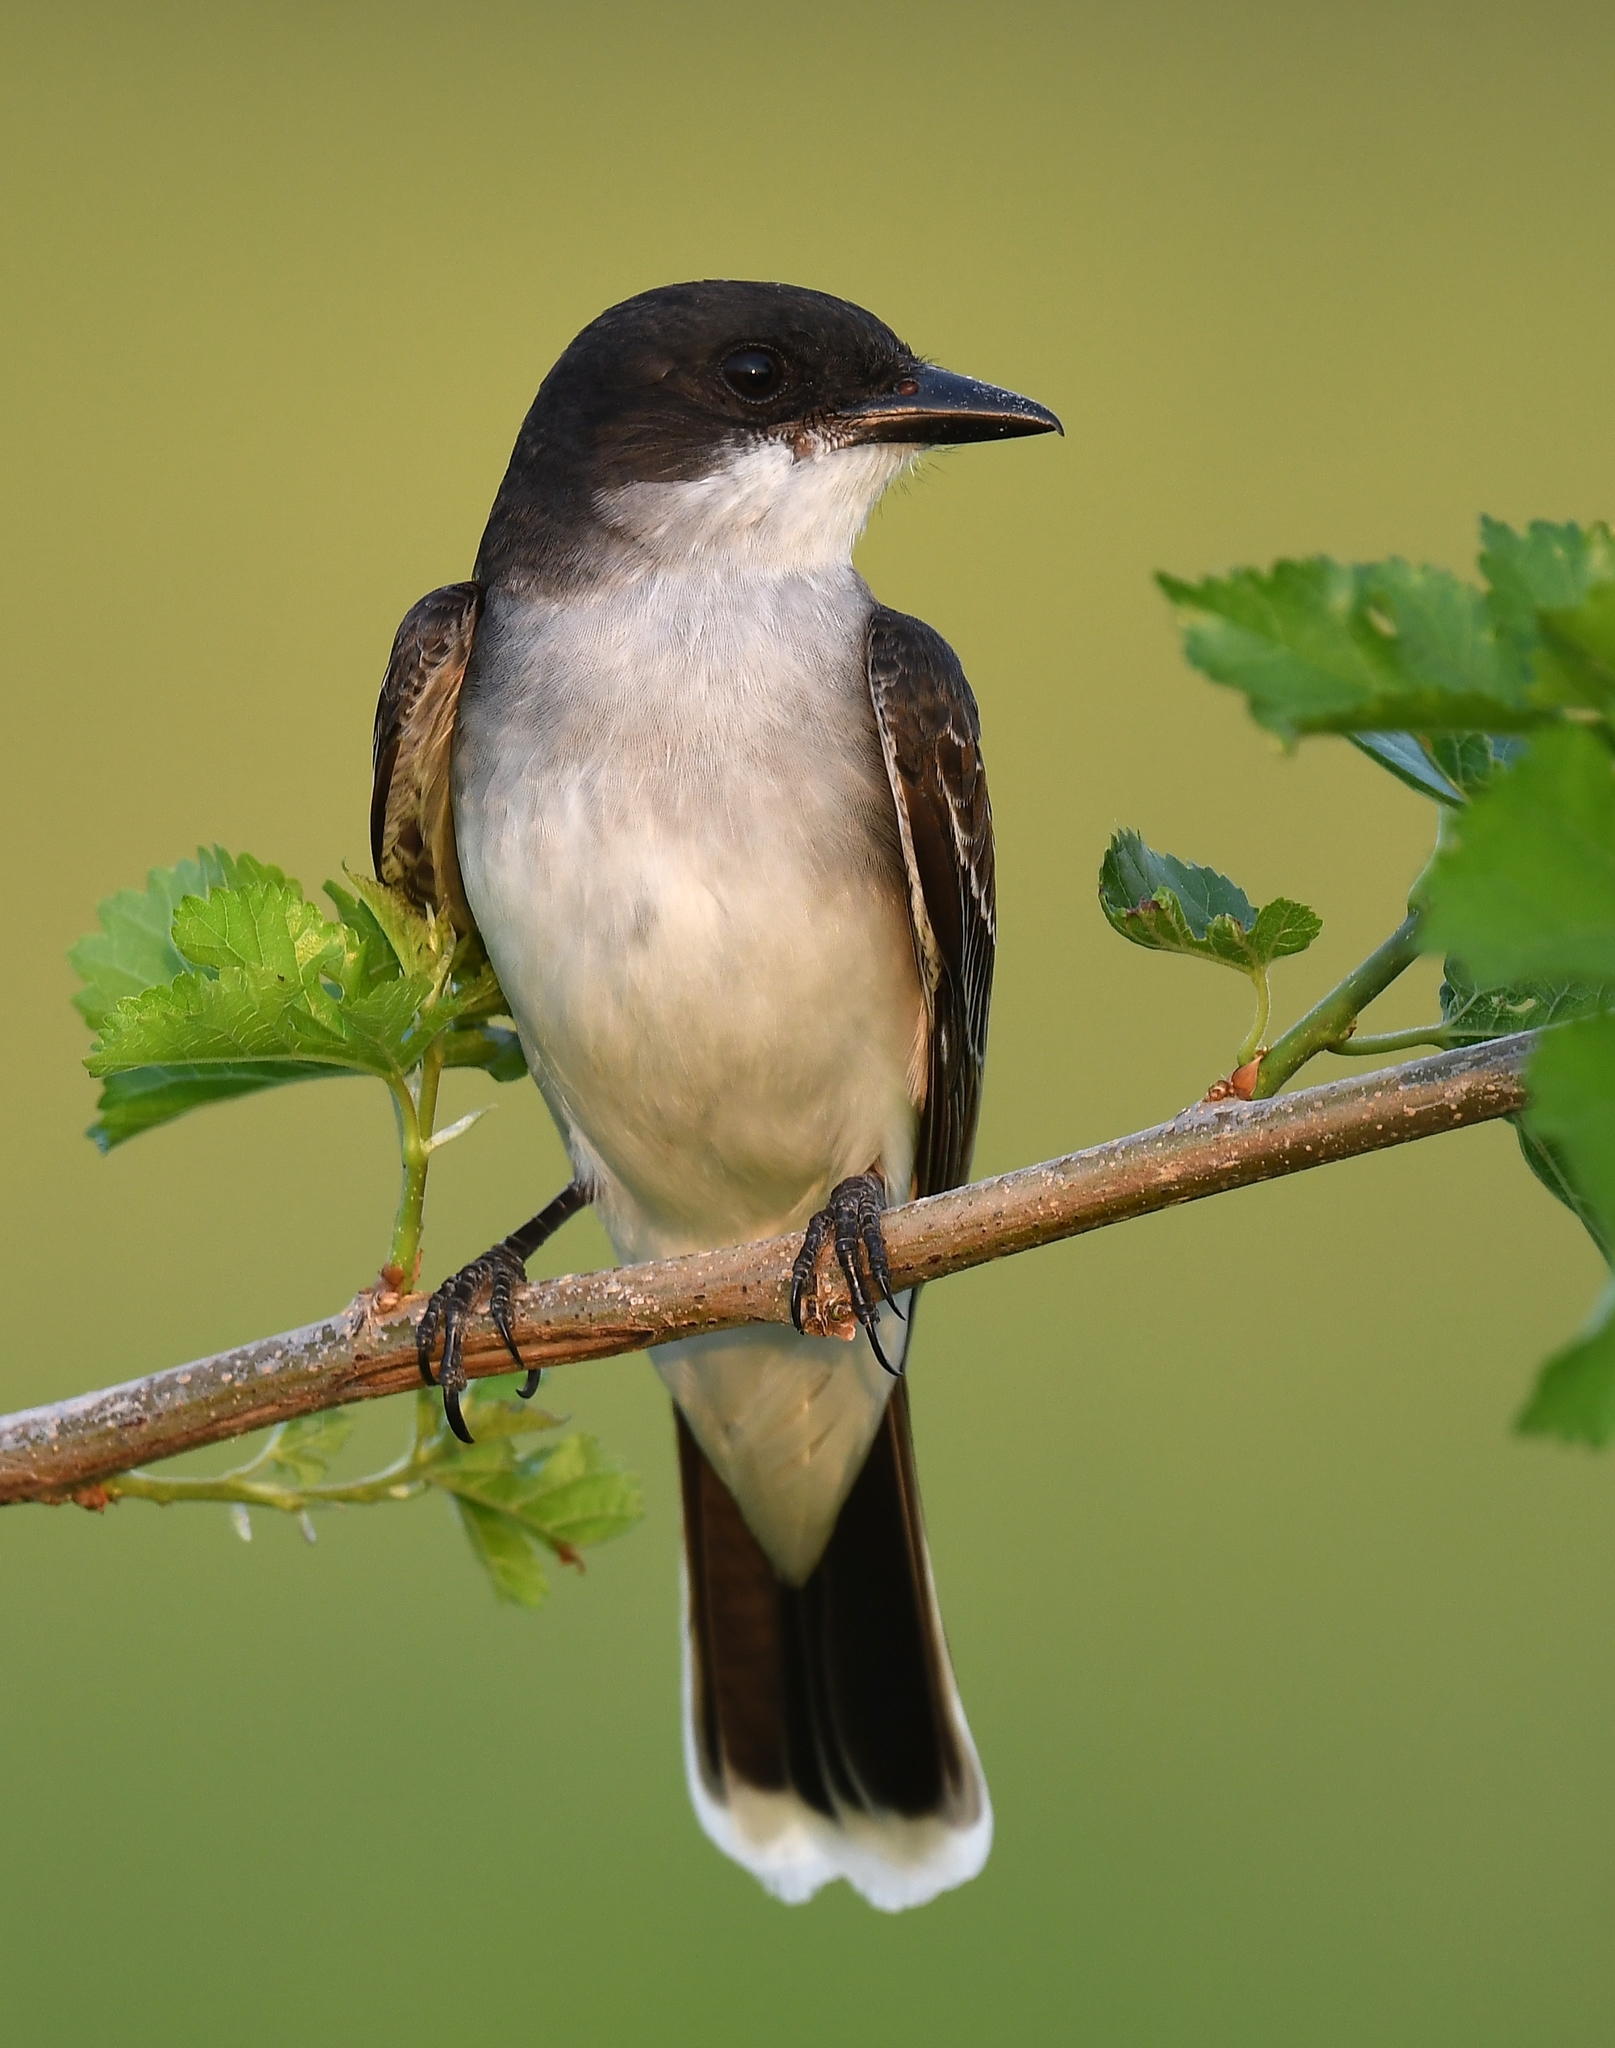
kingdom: Animalia
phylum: Chordata
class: Aves
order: Passeriformes
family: Tyrannidae
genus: Tyrannus
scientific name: Tyrannus tyrannus
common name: Eastern kingbird
